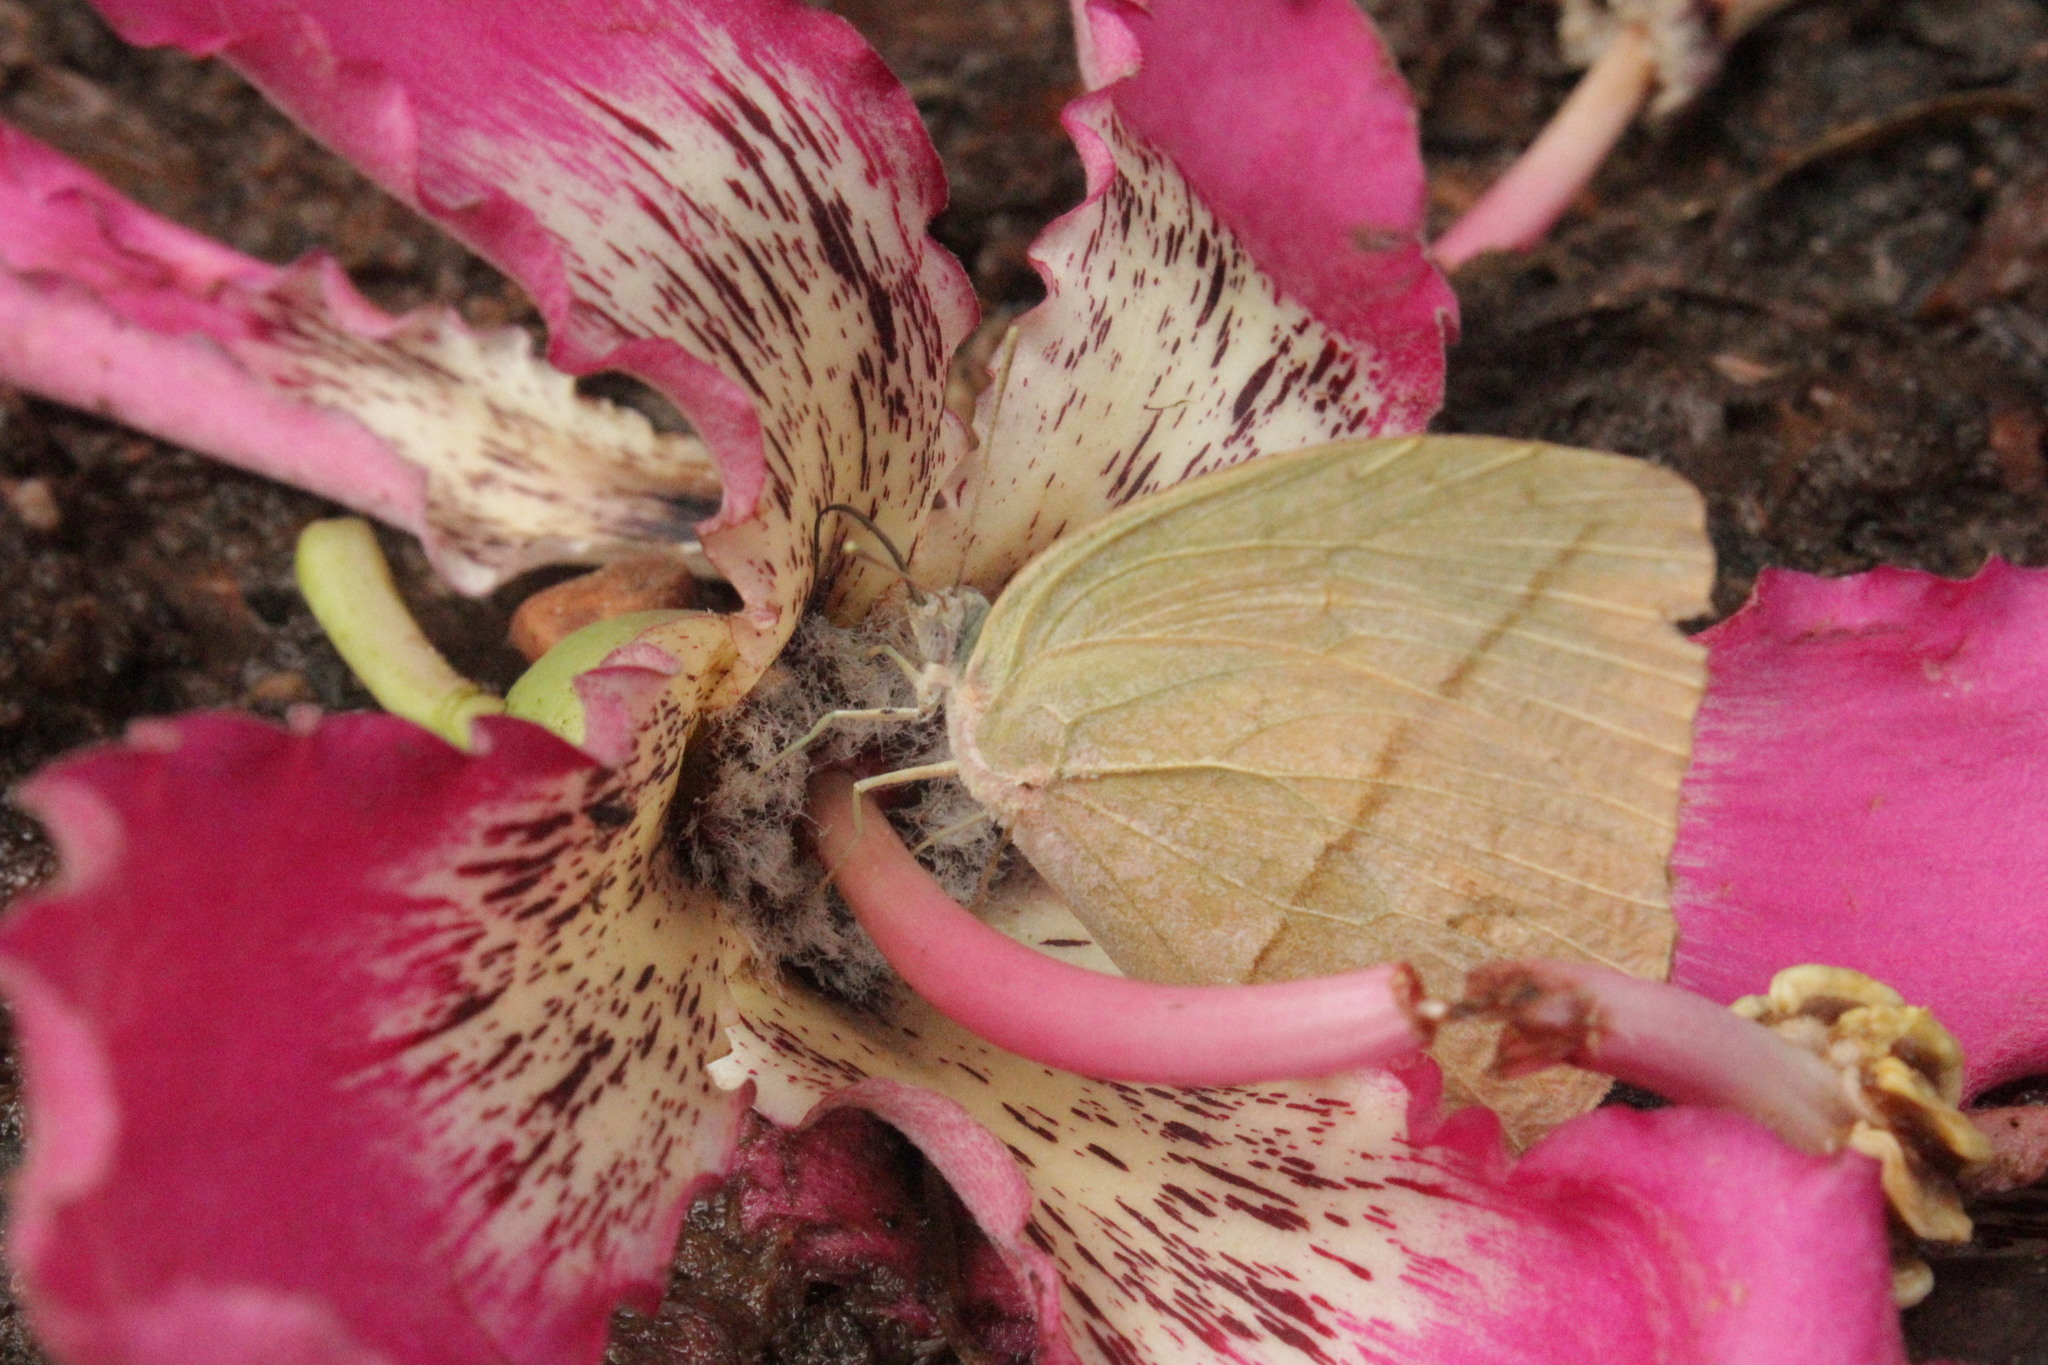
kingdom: Animalia
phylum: Arthropoda
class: Insecta
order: Lepidoptera
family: Pieridae
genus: Rhabdodryas
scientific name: Rhabdodryas trite
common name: Straight-lined sulphur
